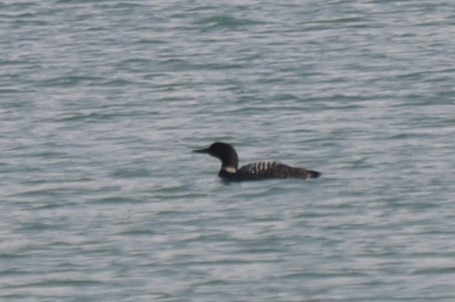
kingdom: Animalia
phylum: Chordata
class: Aves
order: Gaviiformes
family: Gaviidae
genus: Gavia
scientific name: Gavia immer
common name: Common loon
